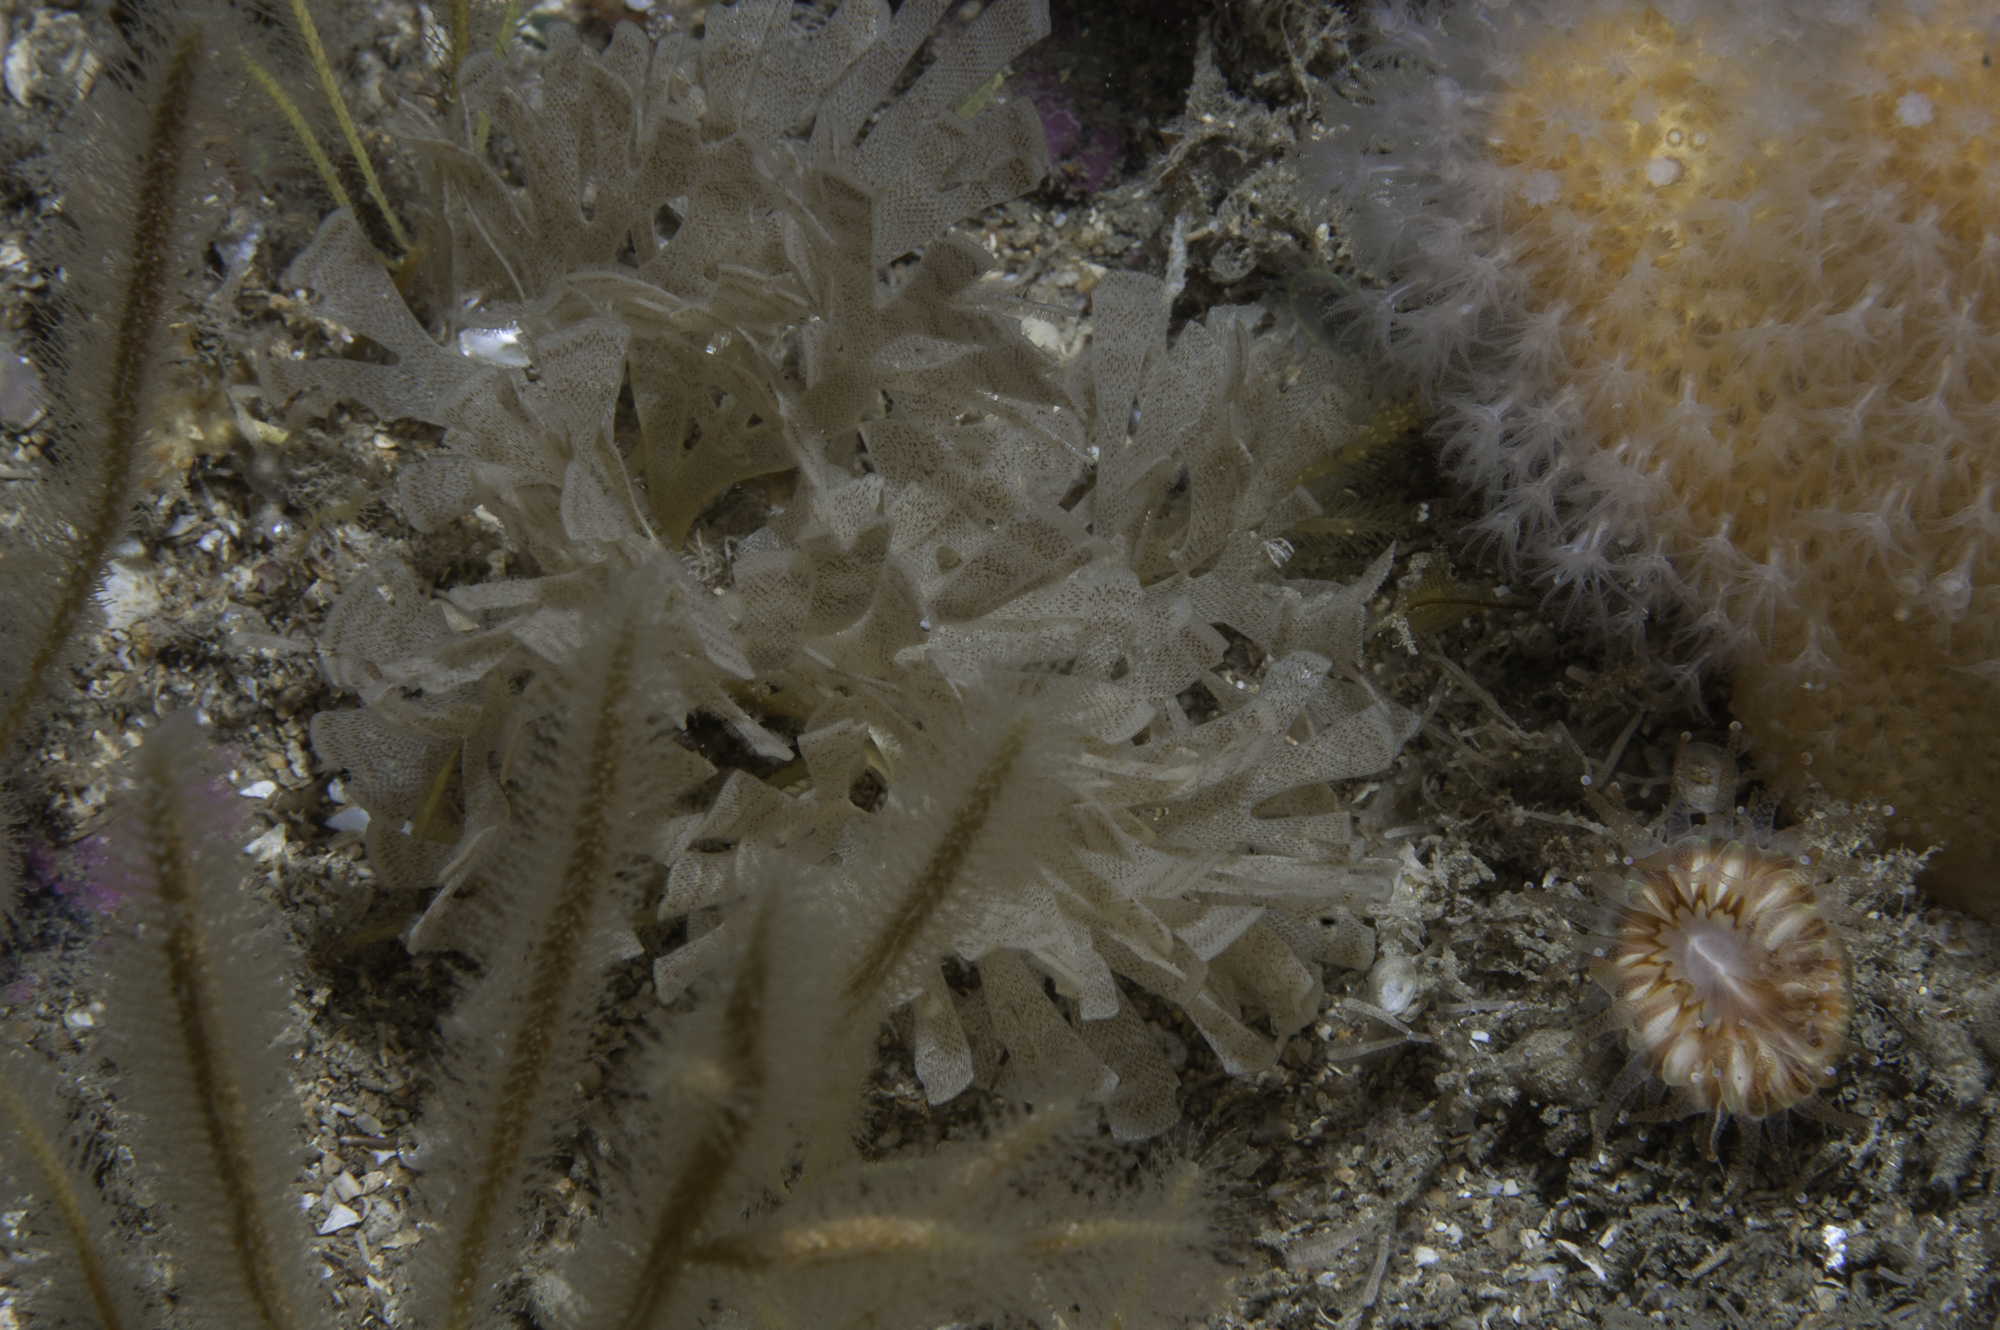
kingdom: Animalia
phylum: Bryozoa
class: Gymnolaemata
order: Cheilostomatida
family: Flustridae
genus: Securiflustra
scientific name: Securiflustra securifrons
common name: Narrow-leaved hornwrack
